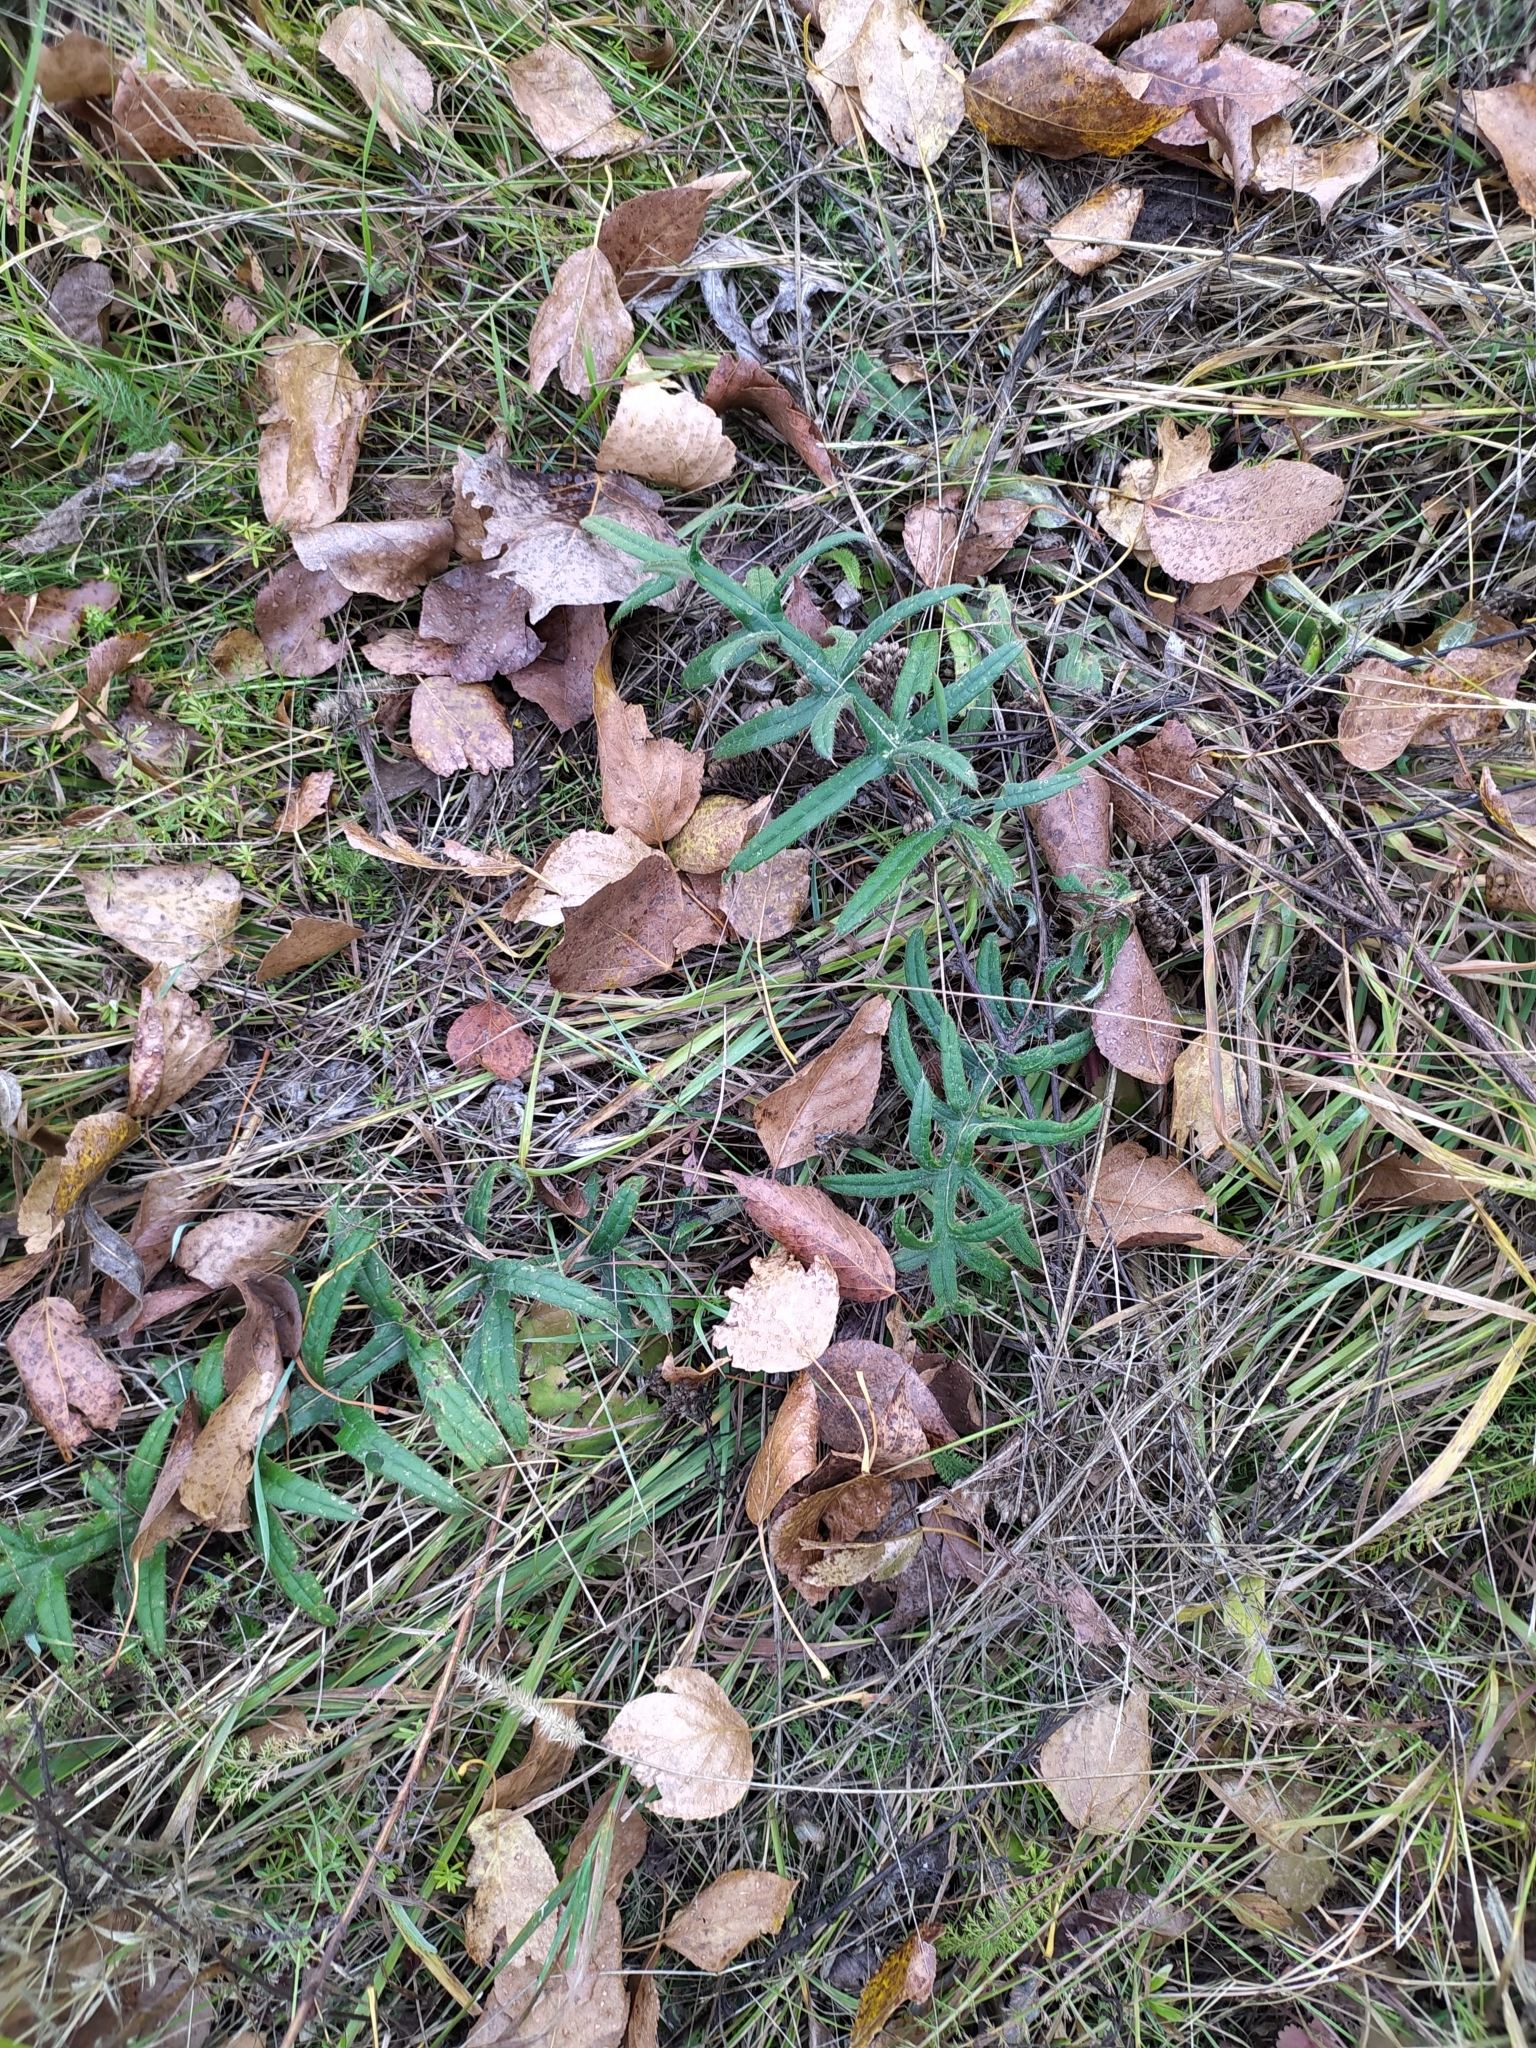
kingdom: Plantae
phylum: Tracheophyta
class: Magnoliopsida
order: Asterales
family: Asteraceae
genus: Lophiolepis
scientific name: Lophiolepis decussata
